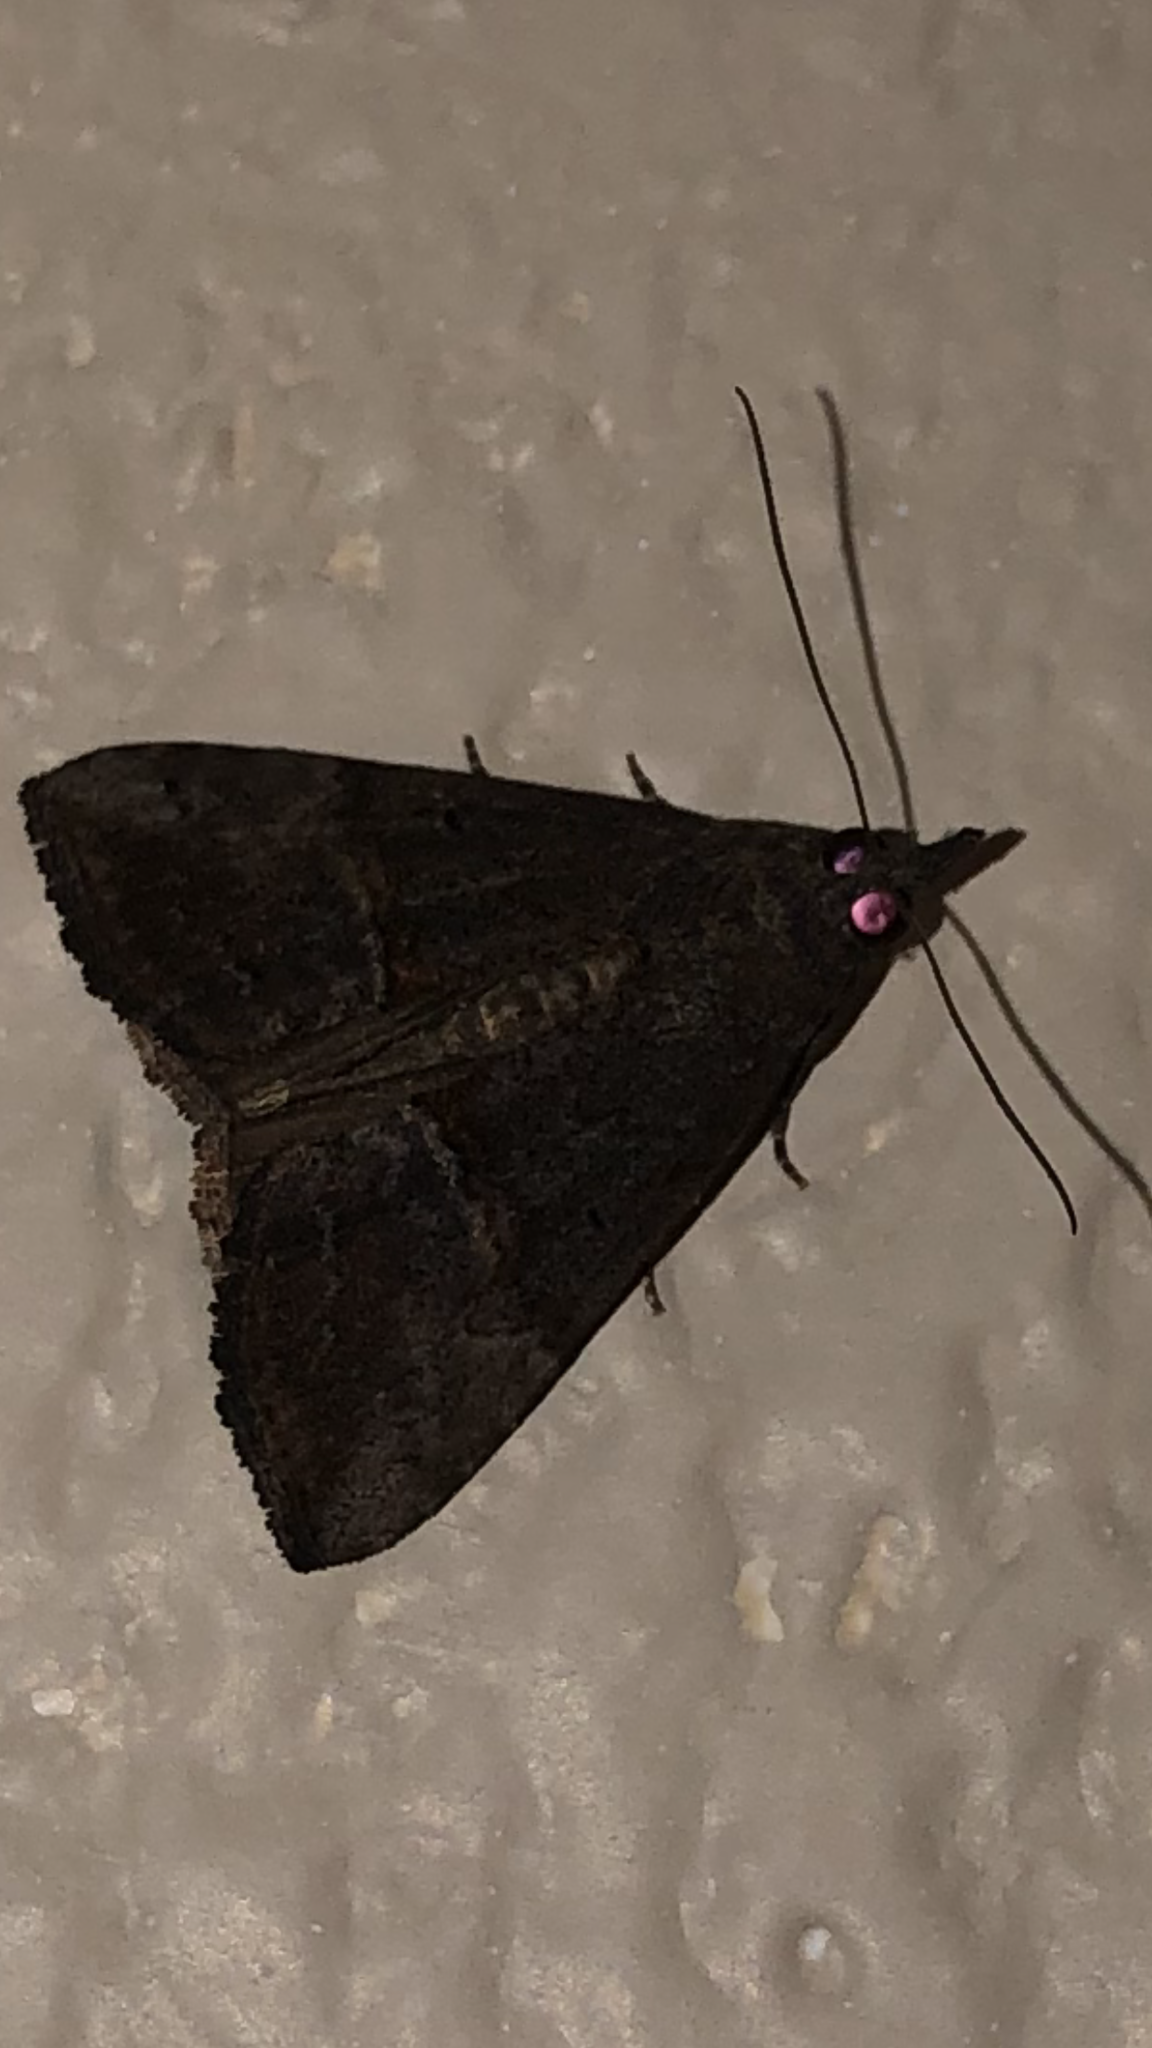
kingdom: Animalia
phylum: Arthropoda
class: Insecta
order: Lepidoptera
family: Erebidae
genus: Hypena
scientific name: Hypena scabra
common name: Green cloverworm
